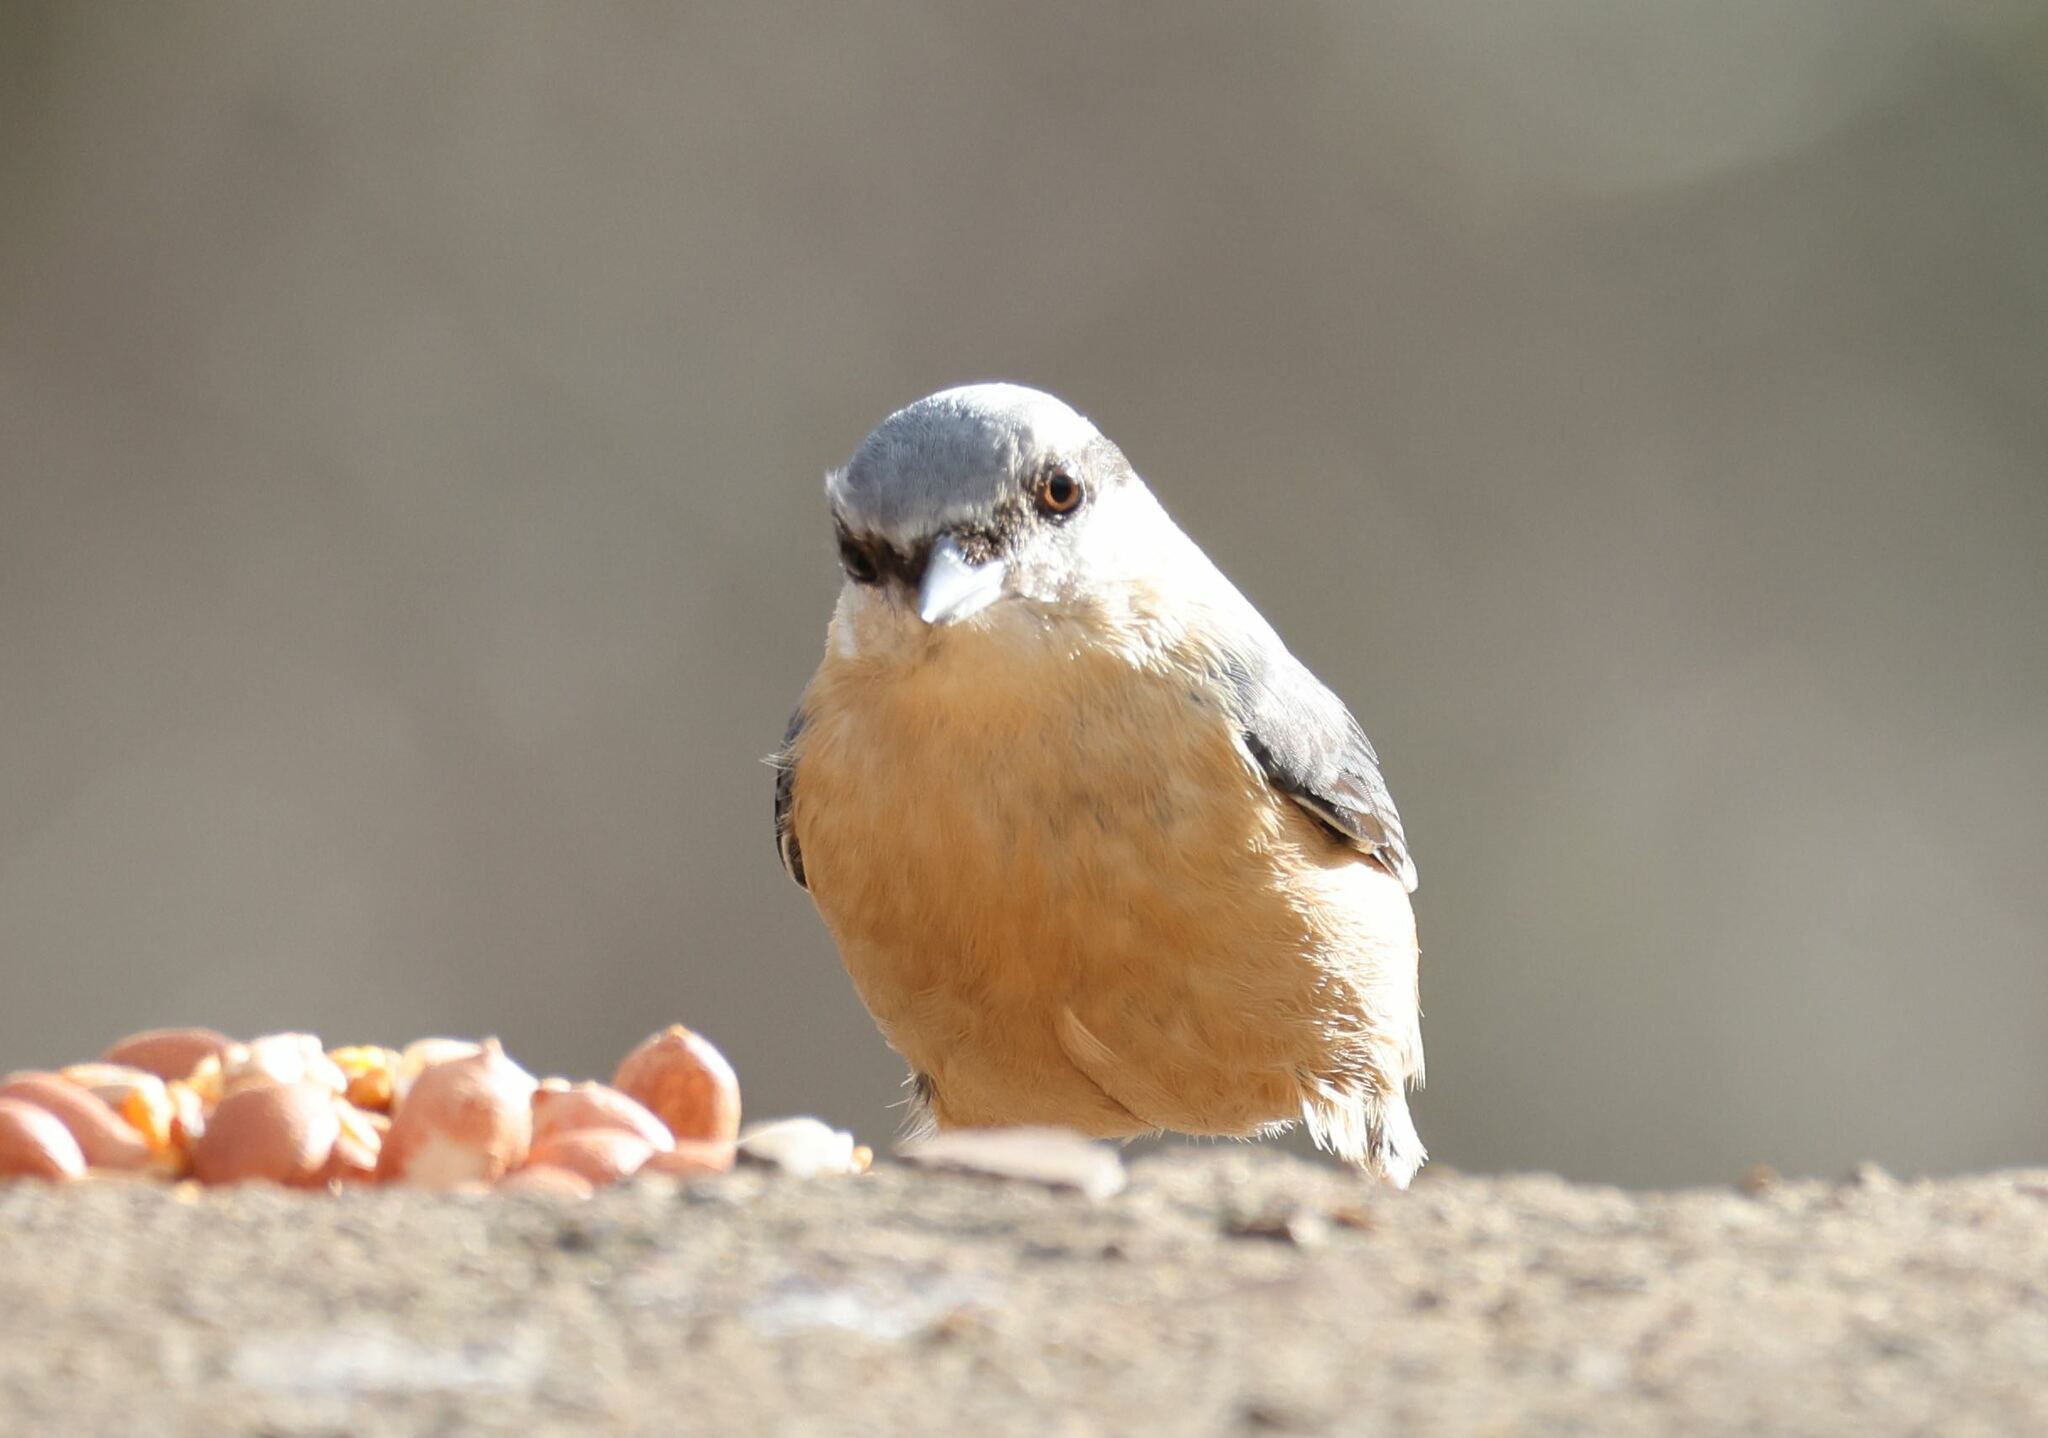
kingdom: Animalia
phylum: Chordata
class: Aves
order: Passeriformes
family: Sittidae
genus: Sitta
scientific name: Sitta europaea
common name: Eurasian nuthatch
